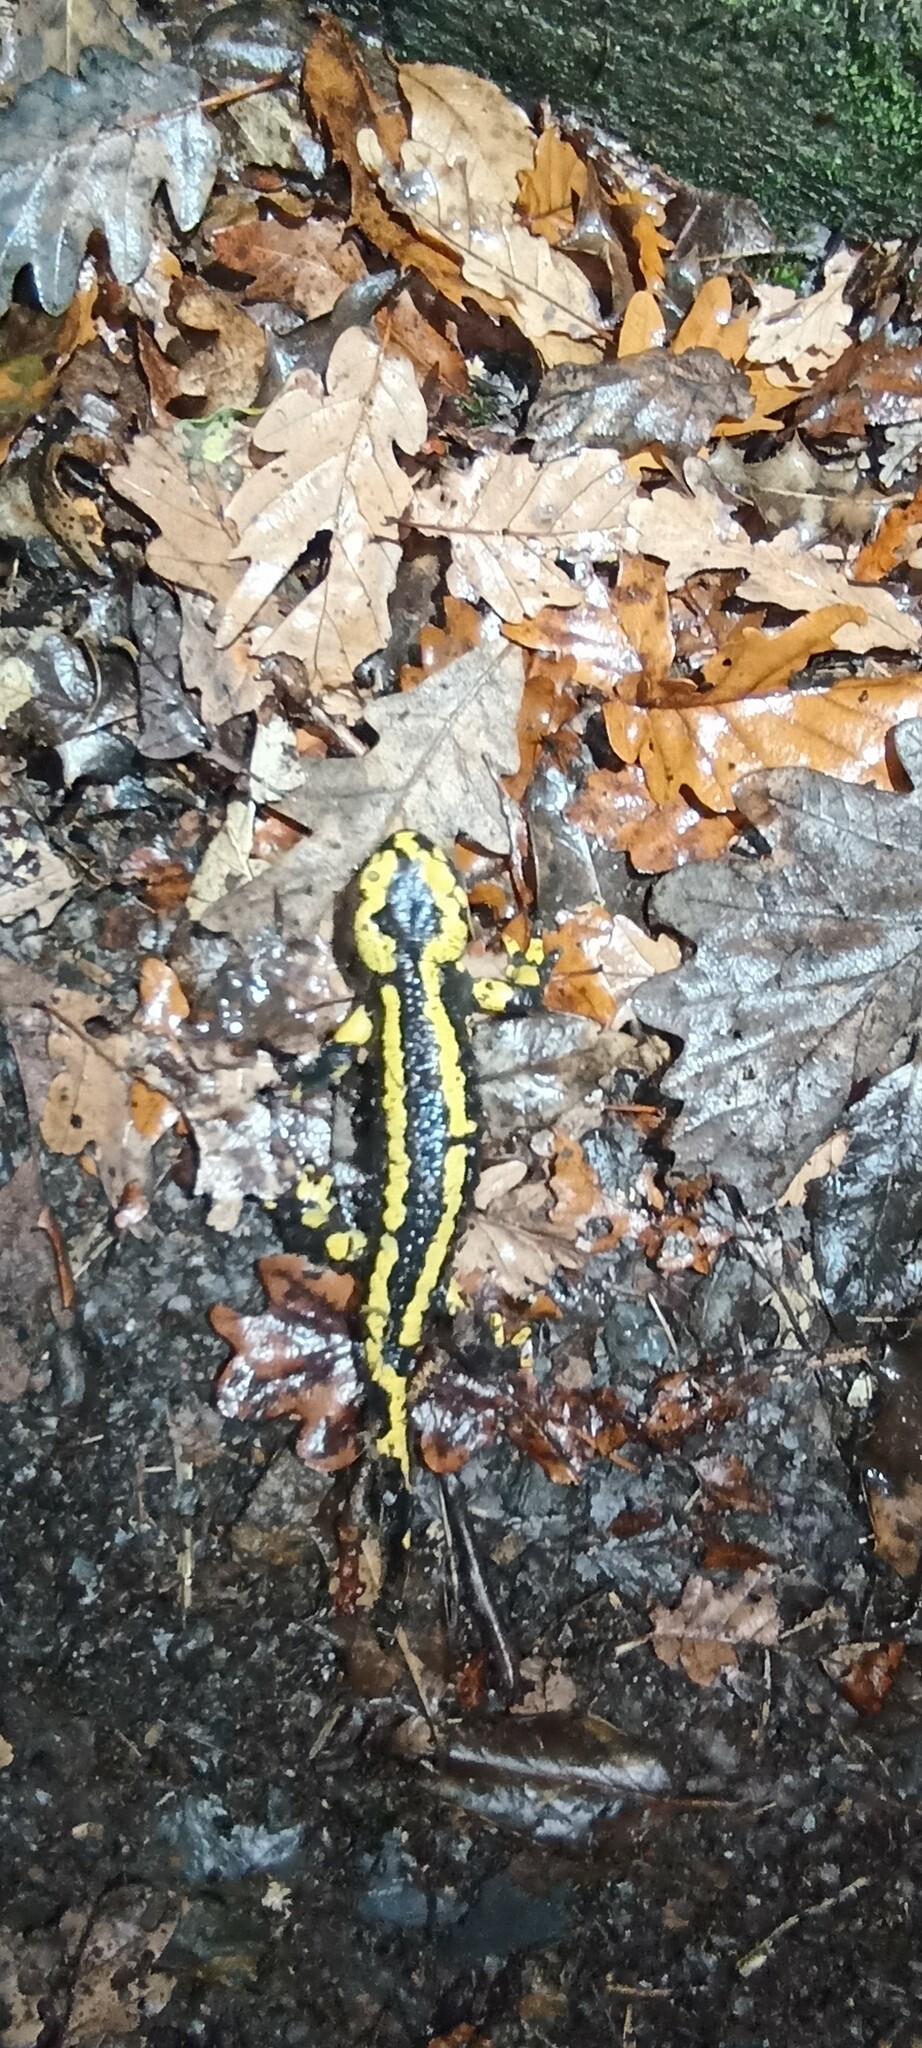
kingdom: Animalia
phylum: Chordata
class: Amphibia
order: Caudata
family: Salamandridae
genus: Salamandra
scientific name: Salamandra salamandra
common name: Fire salamander
